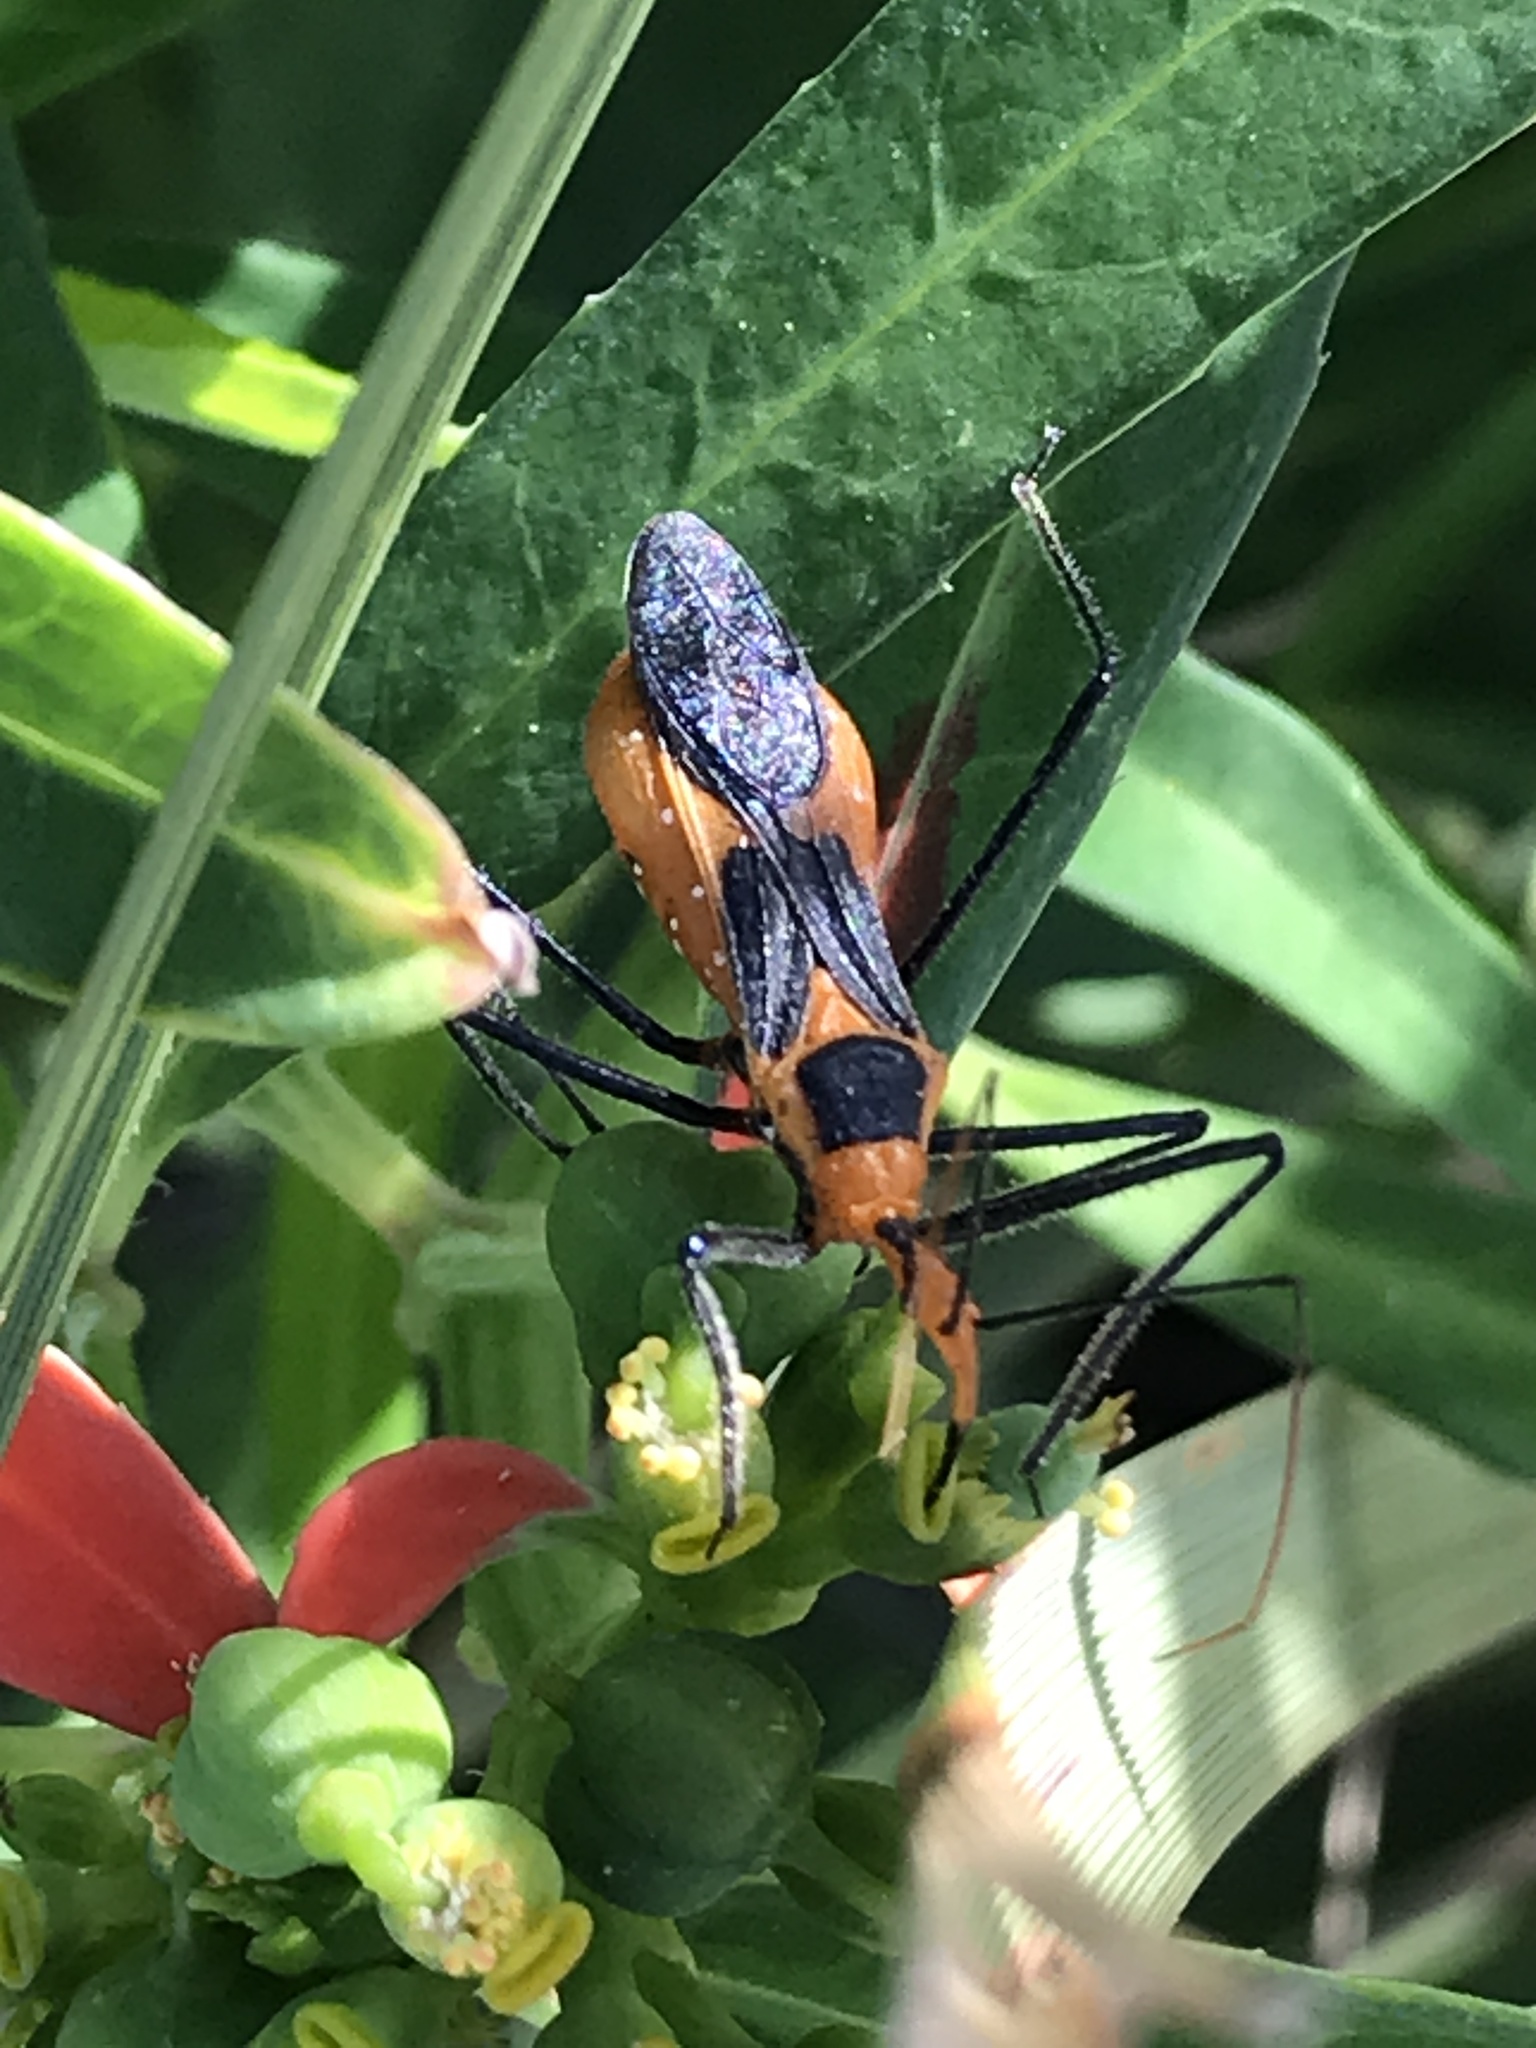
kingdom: Animalia
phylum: Arthropoda
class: Insecta
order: Hemiptera
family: Reduviidae
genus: Zelus
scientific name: Zelus longipes
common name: Milkweed assassin bug
